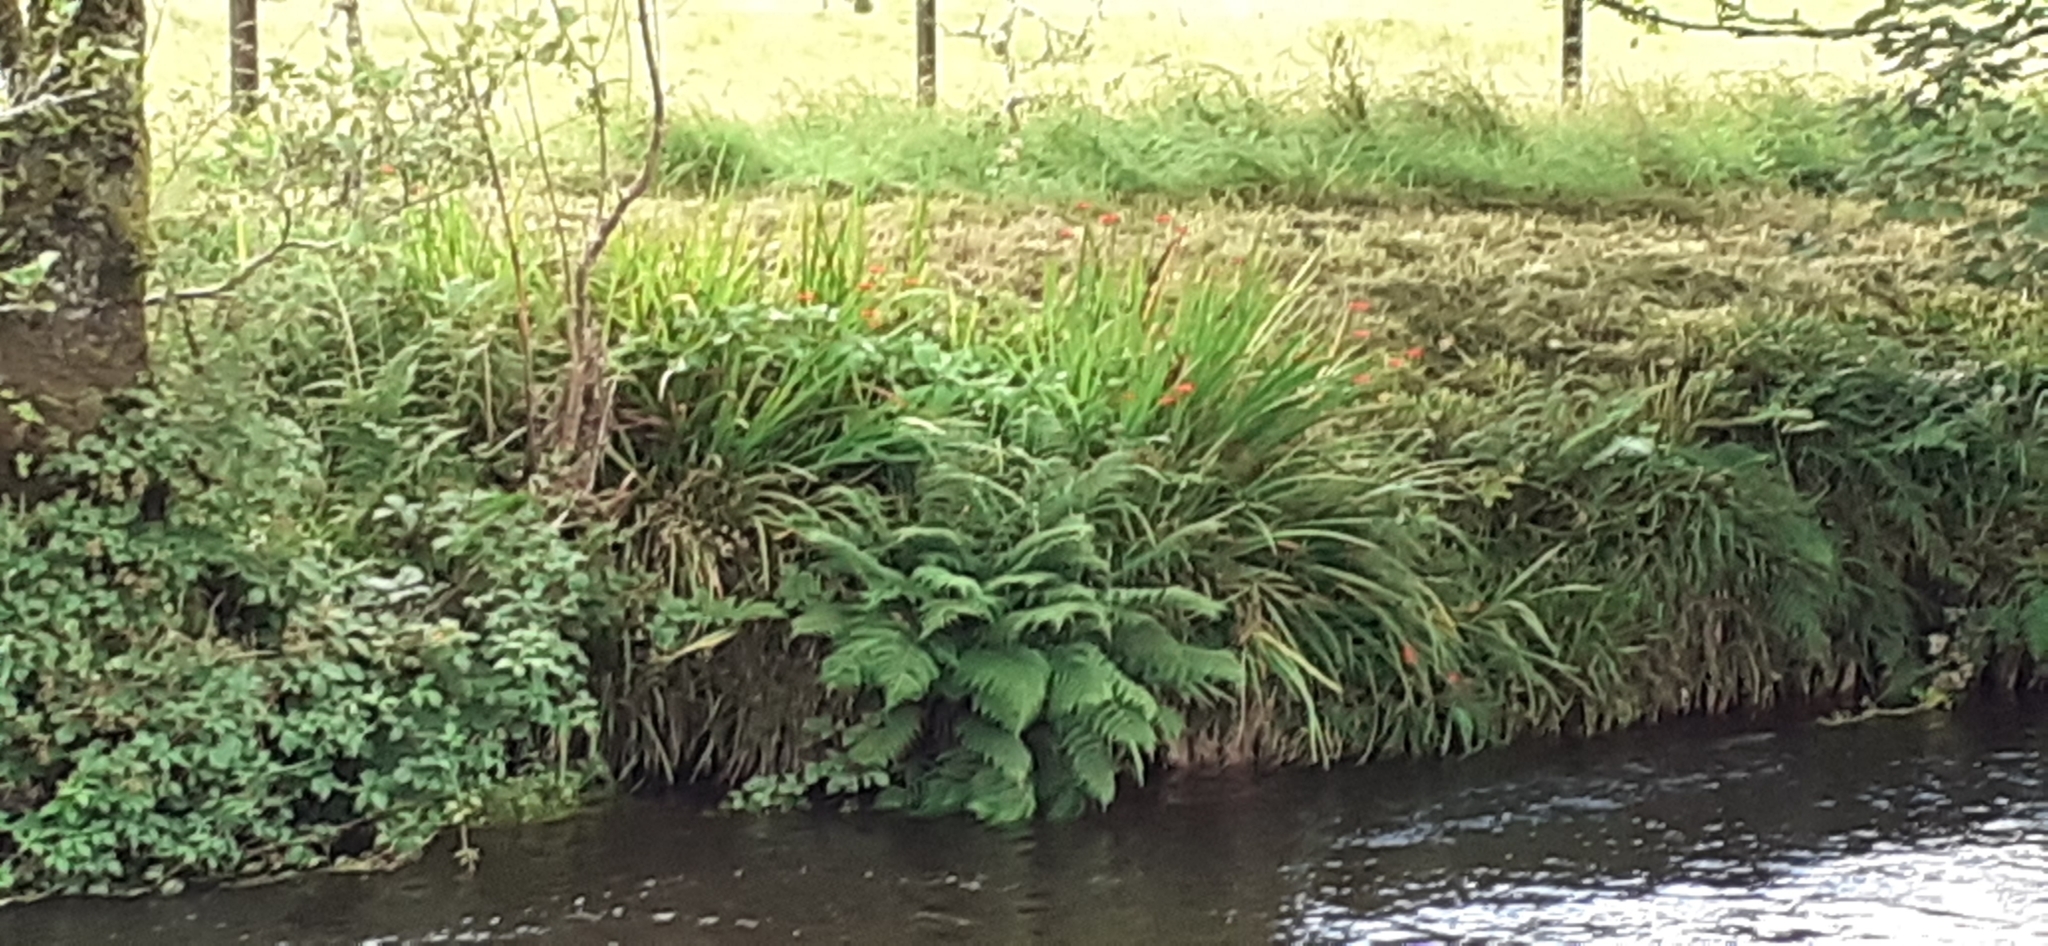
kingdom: Plantae
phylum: Tracheophyta
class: Liliopsida
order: Asparagales
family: Iridaceae
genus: Crocosmia
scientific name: Crocosmia crocosmiiflora
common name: Montbretia
